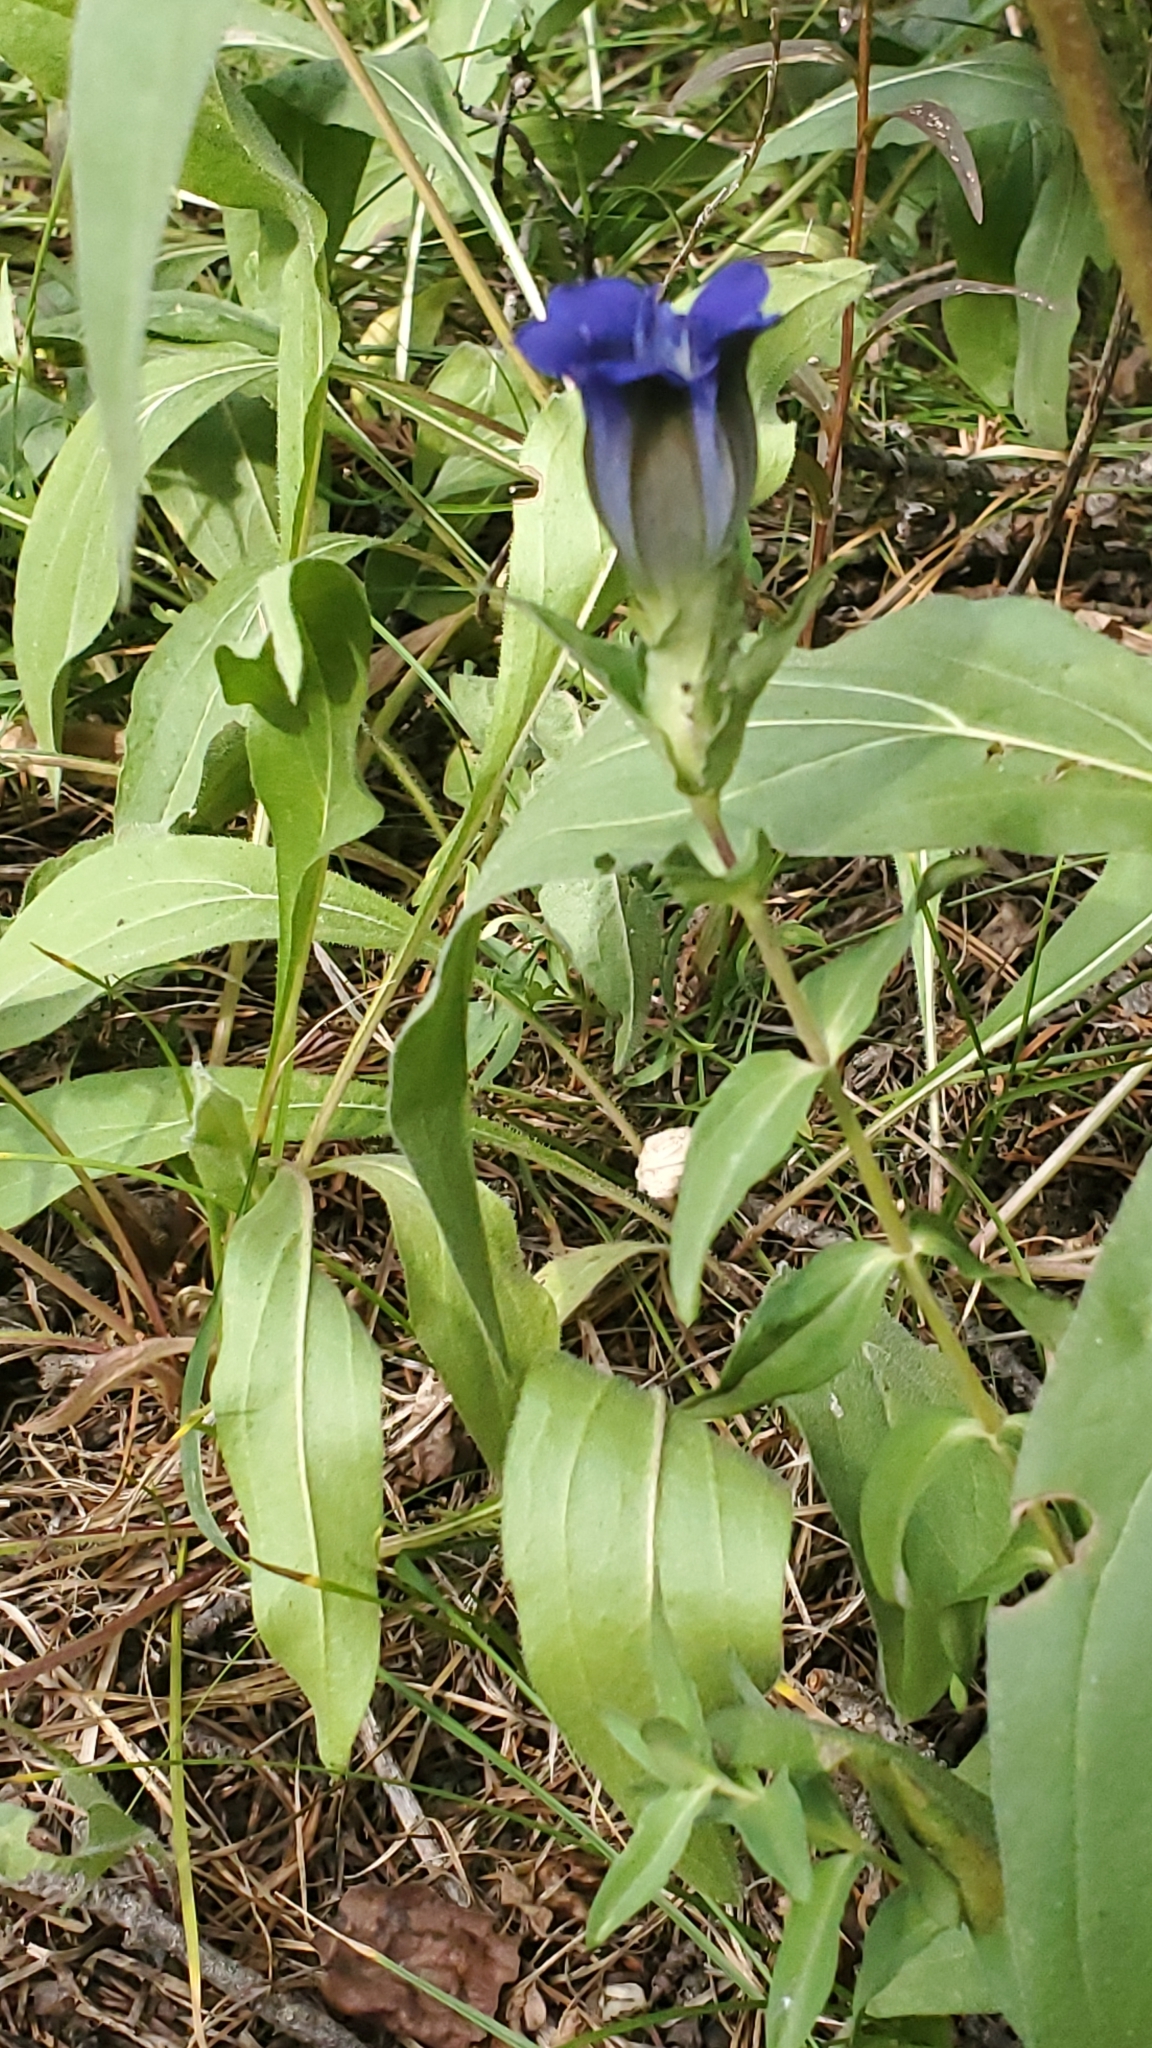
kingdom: Plantae
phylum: Tracheophyta
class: Magnoliopsida
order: Gentianales
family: Gentianaceae
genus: Gentiana
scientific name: Gentiana parryi
